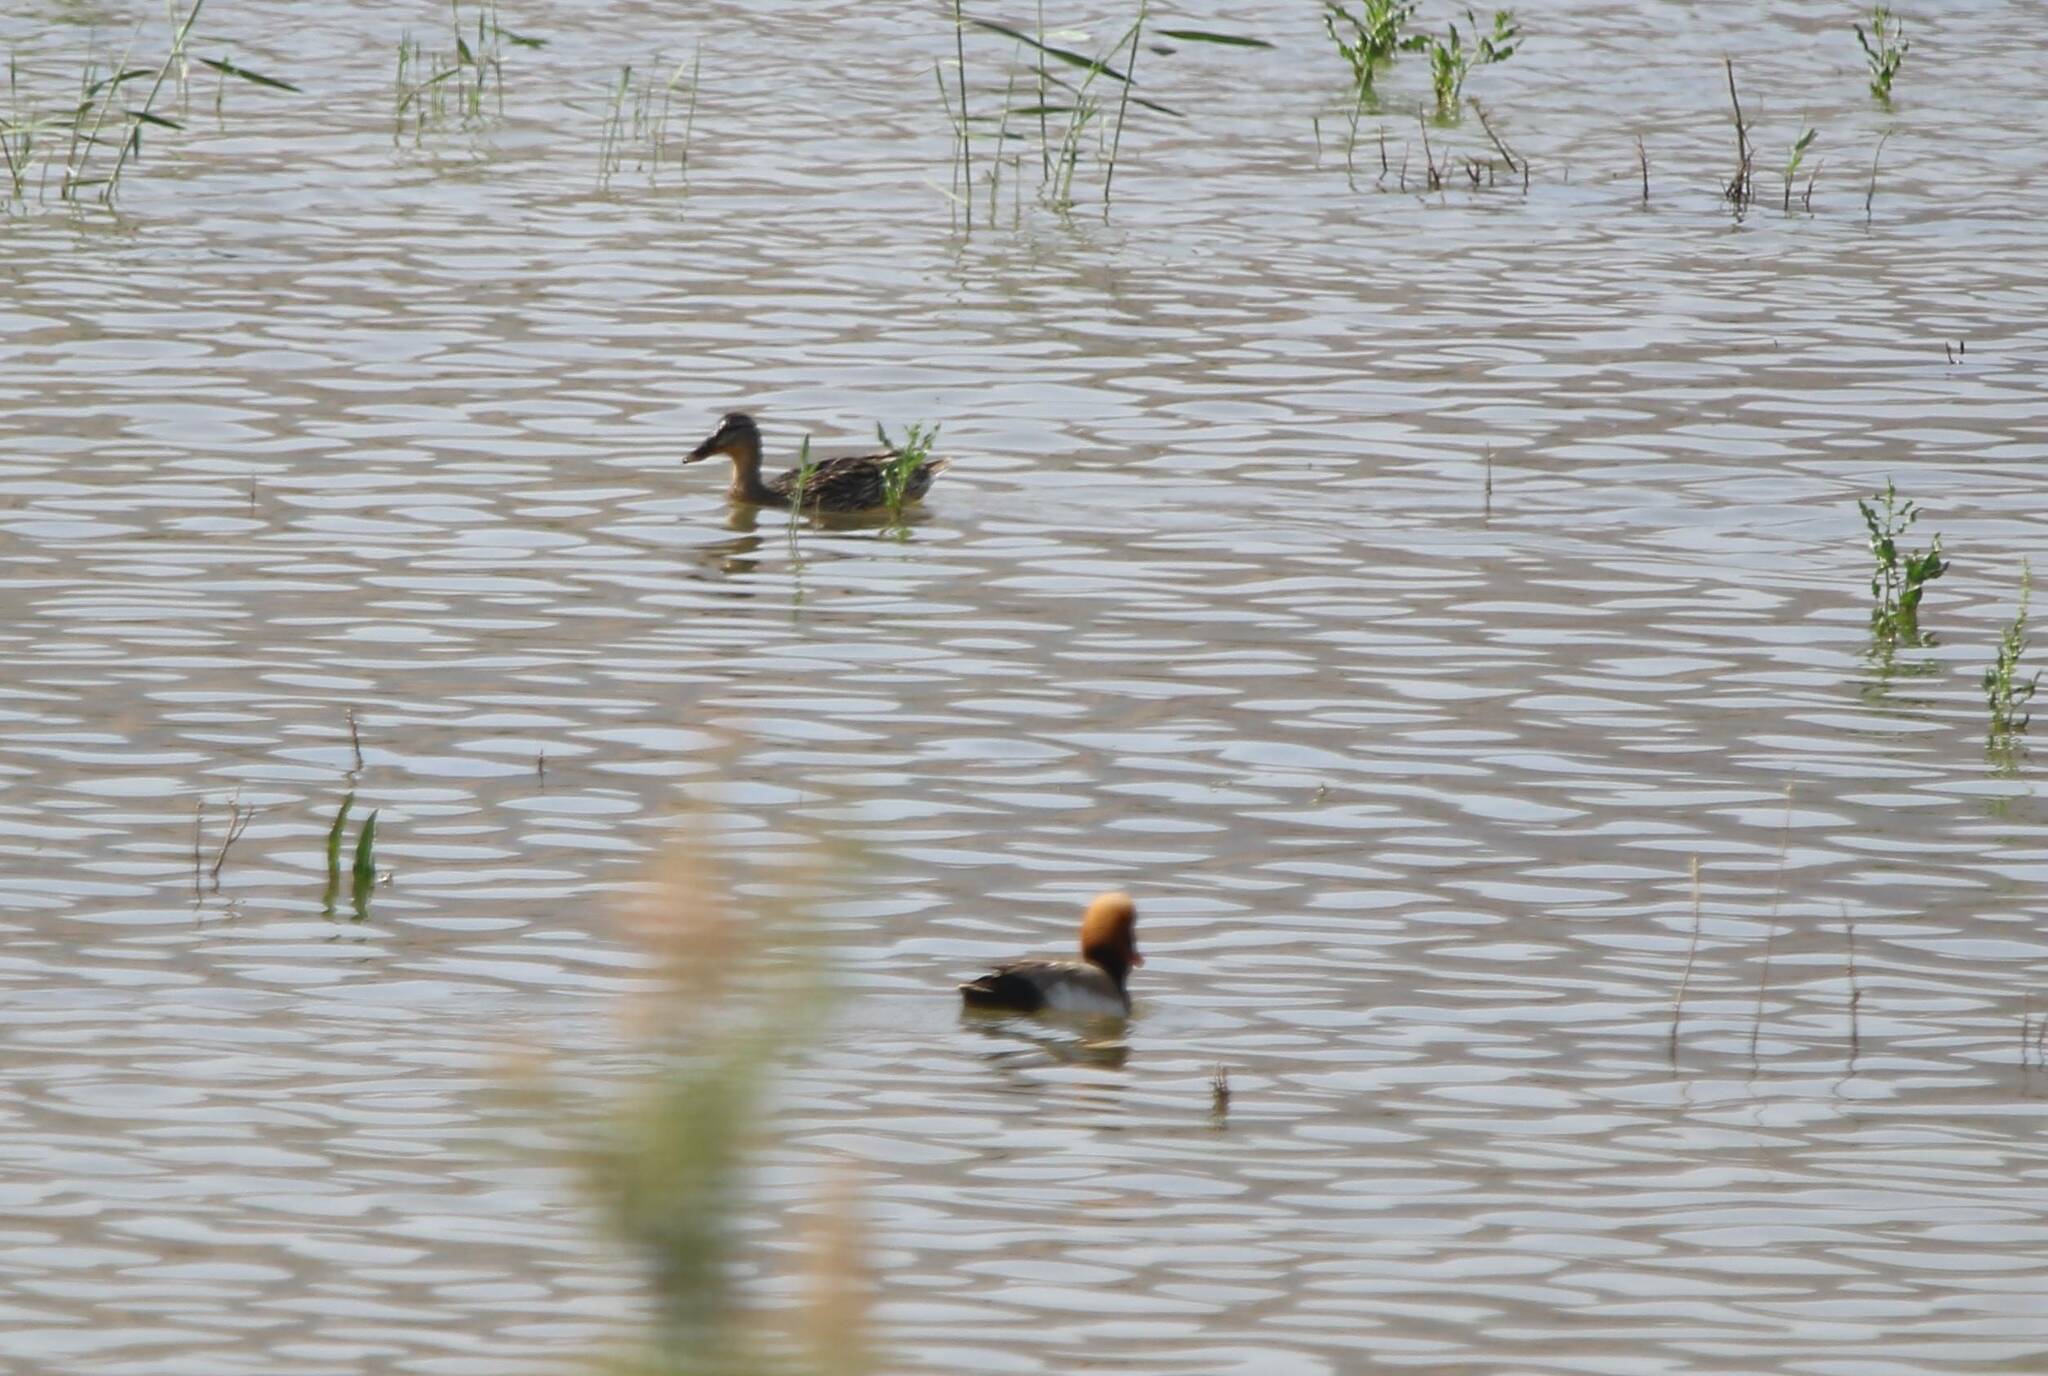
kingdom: Animalia
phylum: Chordata
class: Aves
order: Anseriformes
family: Anatidae
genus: Netta
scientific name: Netta rufina
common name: Red-crested pochard
